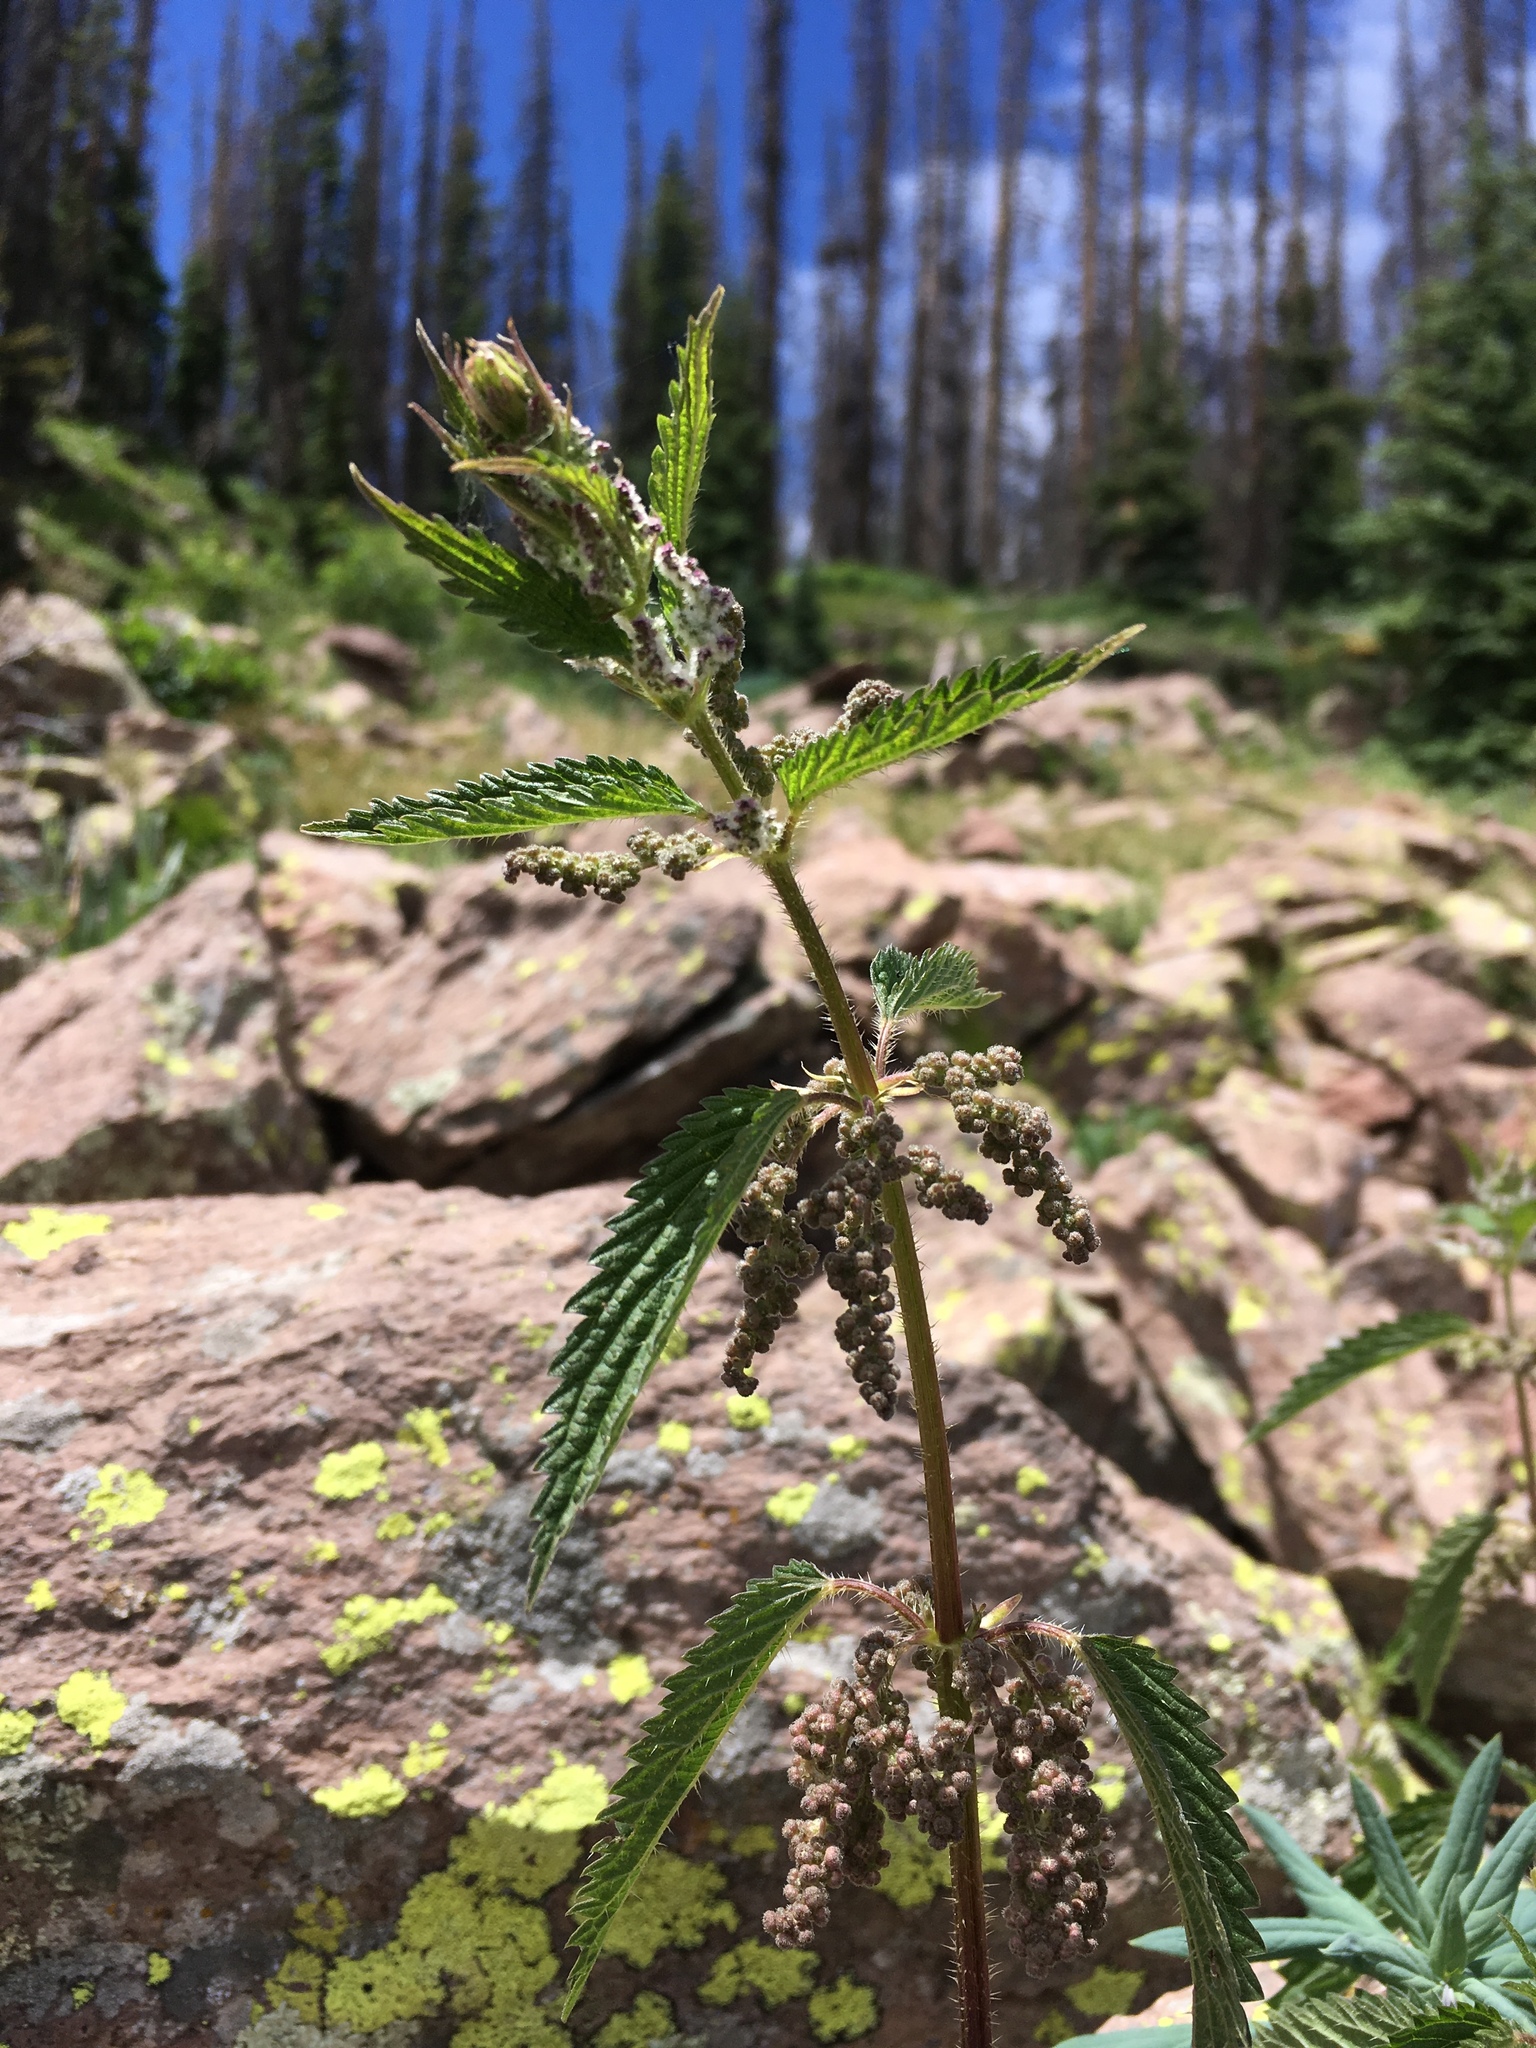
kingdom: Plantae
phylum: Tracheophyta
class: Magnoliopsida
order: Rosales
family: Urticaceae
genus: Urtica
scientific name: Urtica dioica
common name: Common nettle
